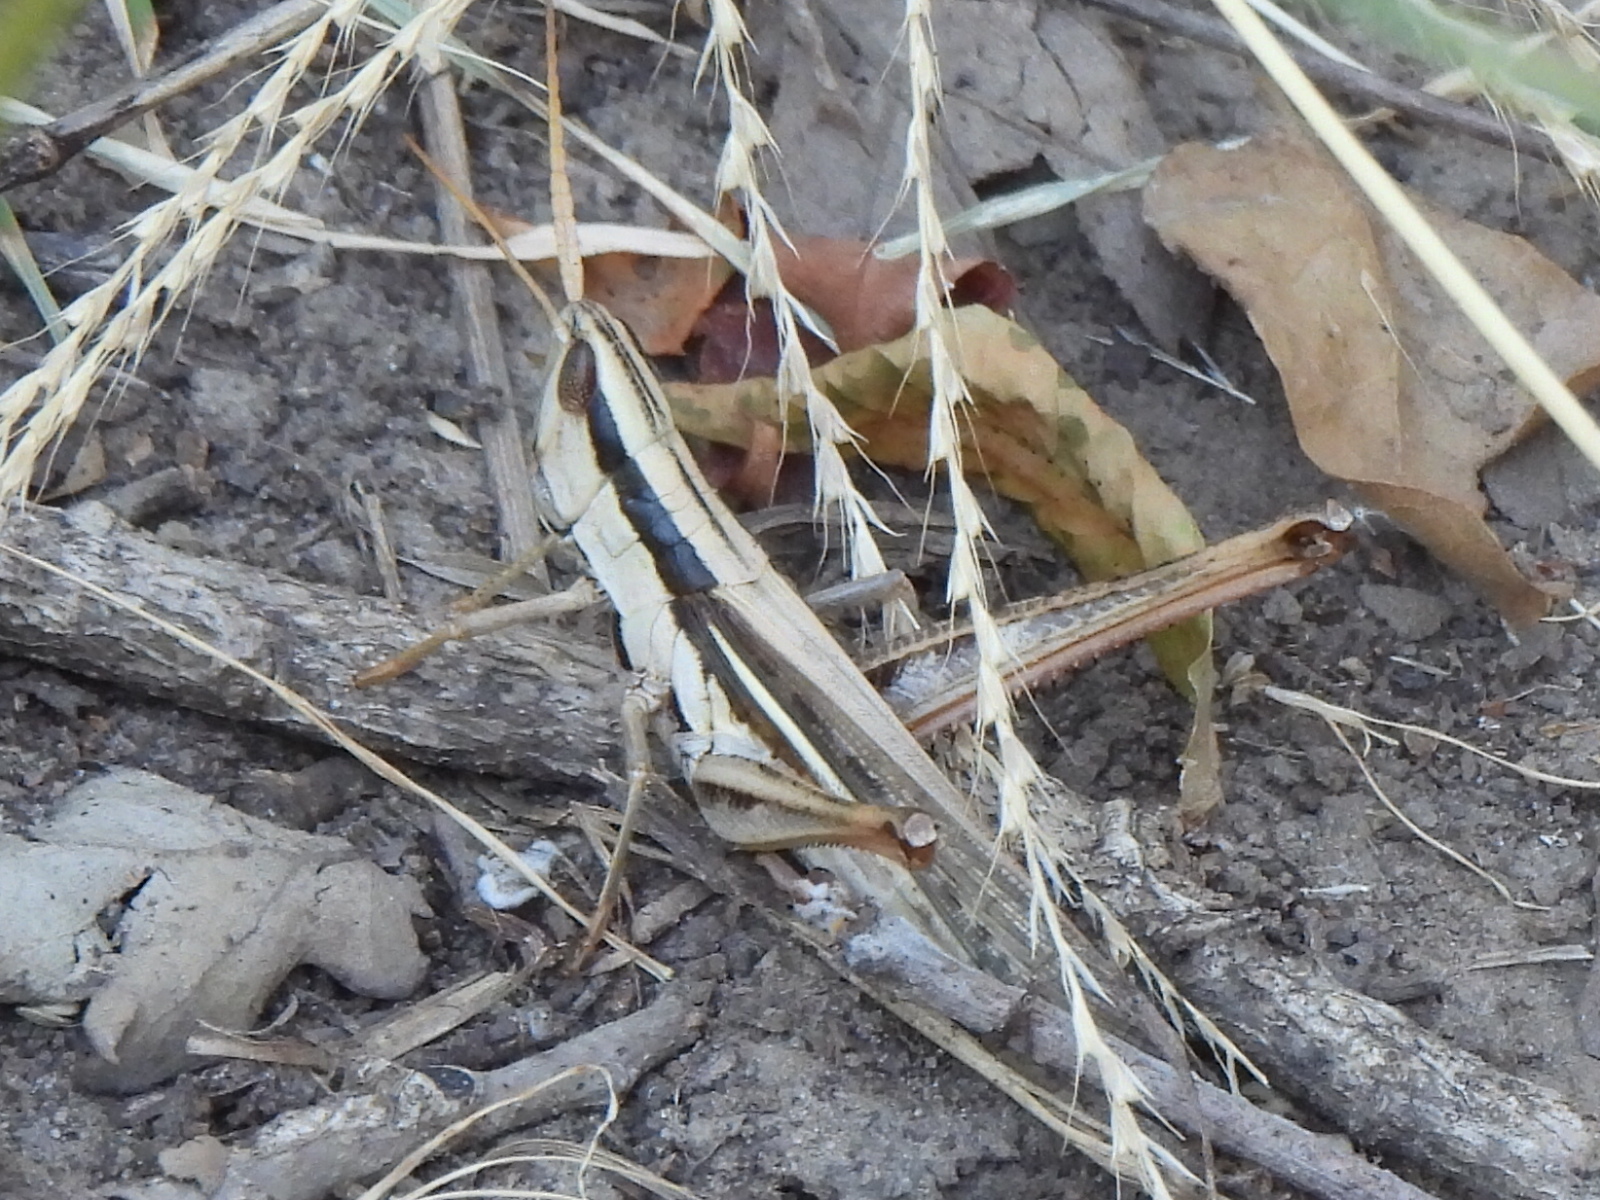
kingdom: Animalia
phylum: Arthropoda
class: Insecta
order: Orthoptera
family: Acrididae
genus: Mermiria
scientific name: Mermiria bivittata
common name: Two-striped mermiria grasshopper
